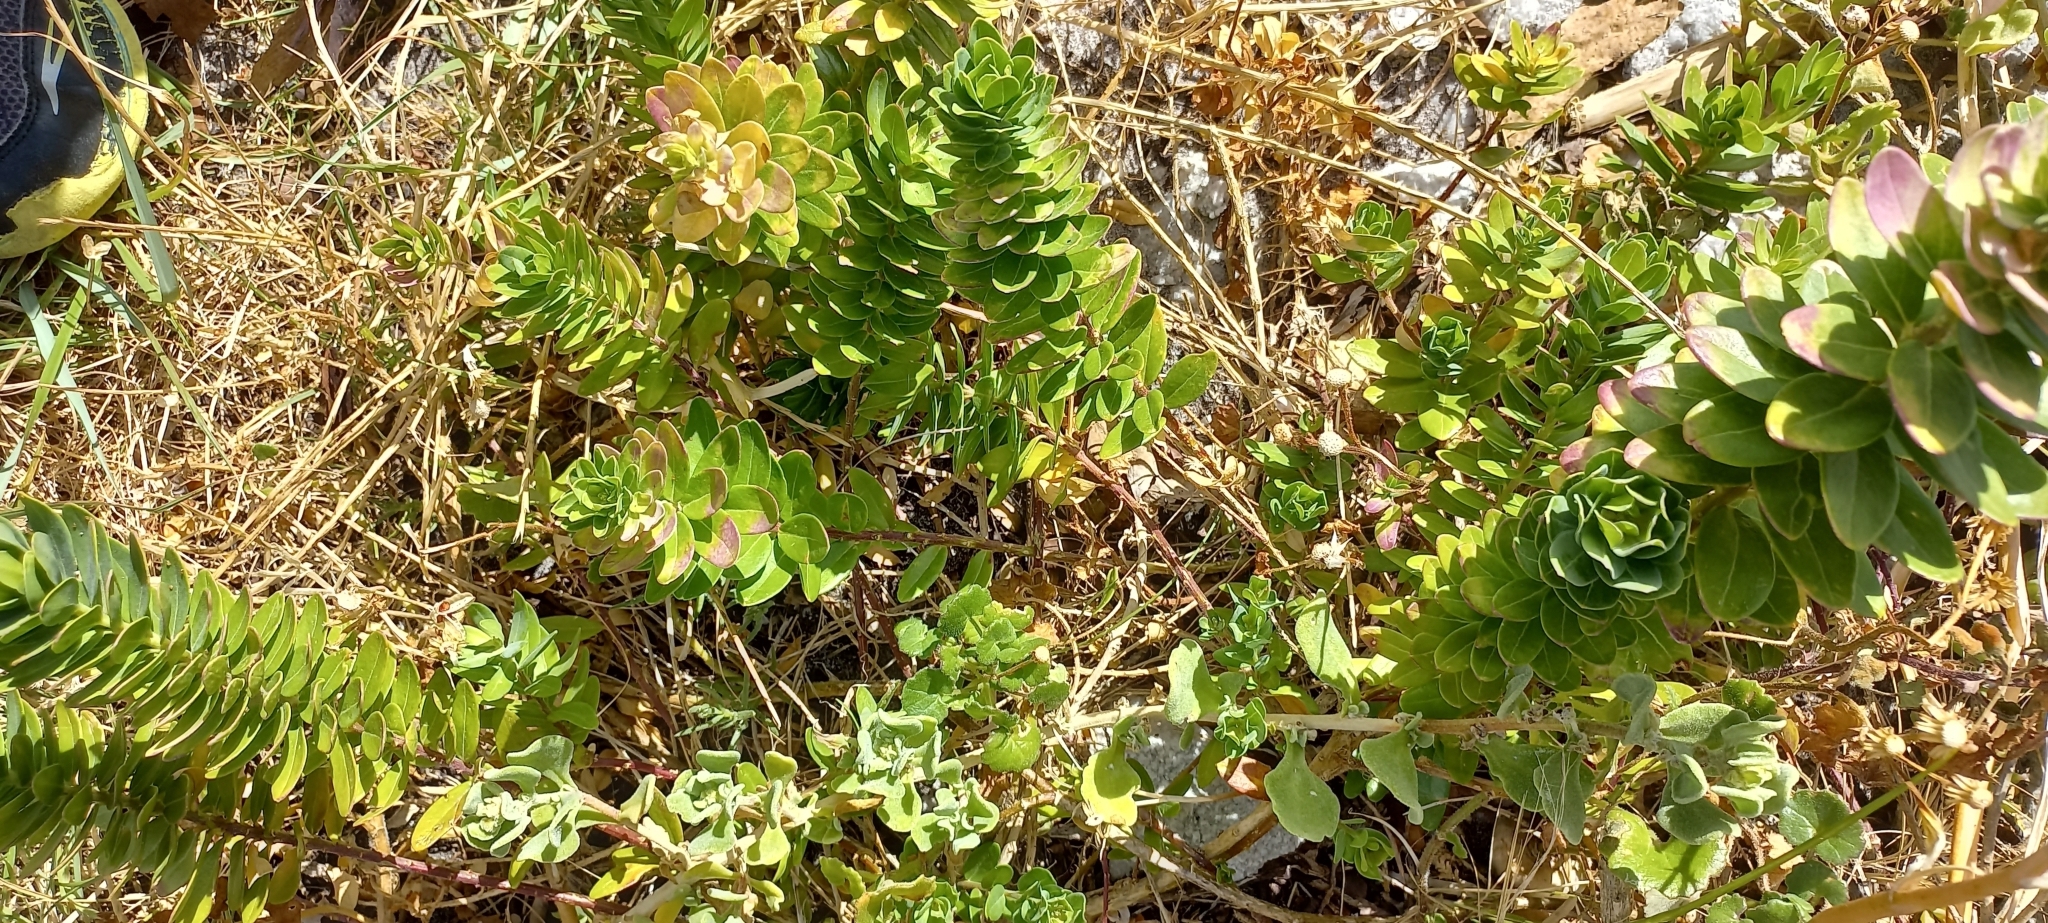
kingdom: Plantae
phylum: Tracheophyta
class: Magnoliopsida
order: Fabales
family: Polygalaceae
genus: Polygala
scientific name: Polygala myrtifolia
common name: Myrtle-leaf milkwort
